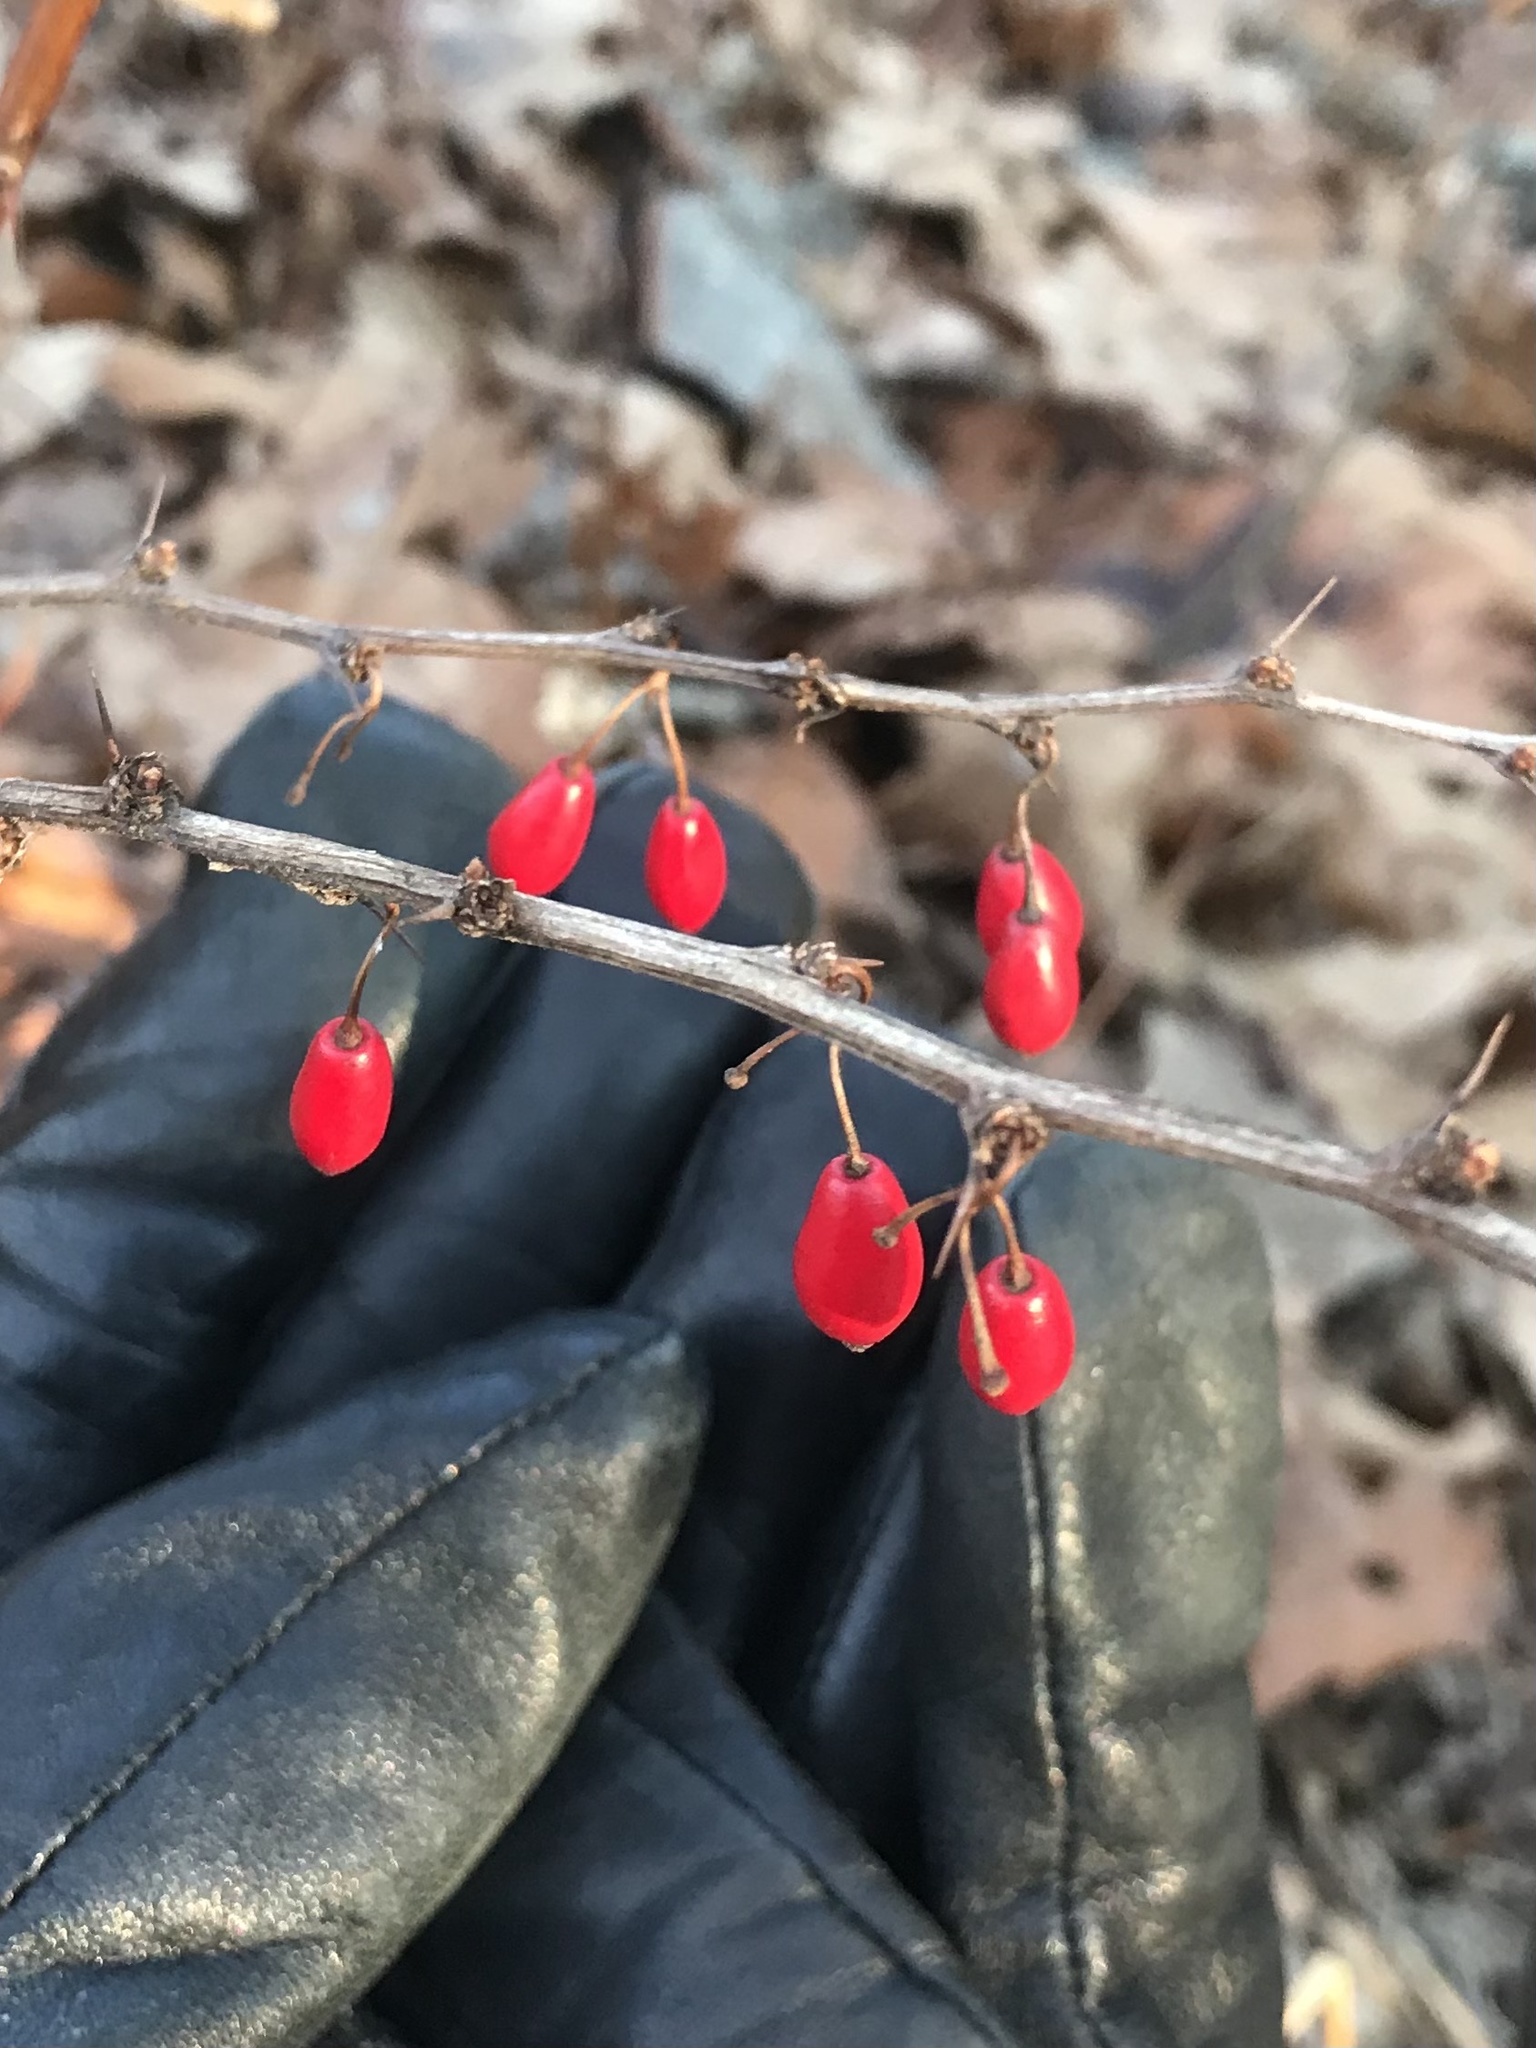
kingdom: Plantae
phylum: Tracheophyta
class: Magnoliopsida
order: Ranunculales
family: Berberidaceae
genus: Berberis
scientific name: Berberis thunbergii
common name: Japanese barberry
